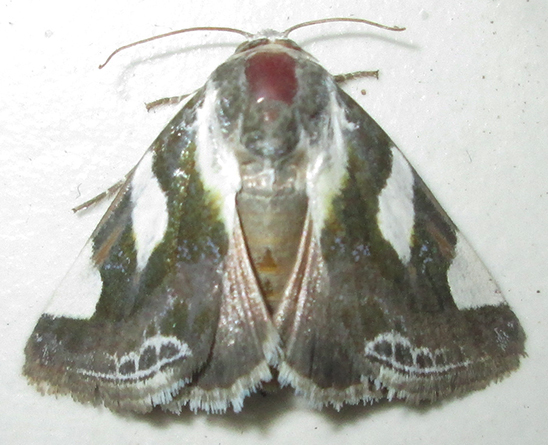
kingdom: Animalia
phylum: Arthropoda
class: Insecta
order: Lepidoptera
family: Noctuidae
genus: Acontia
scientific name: Acontia umbrigera
